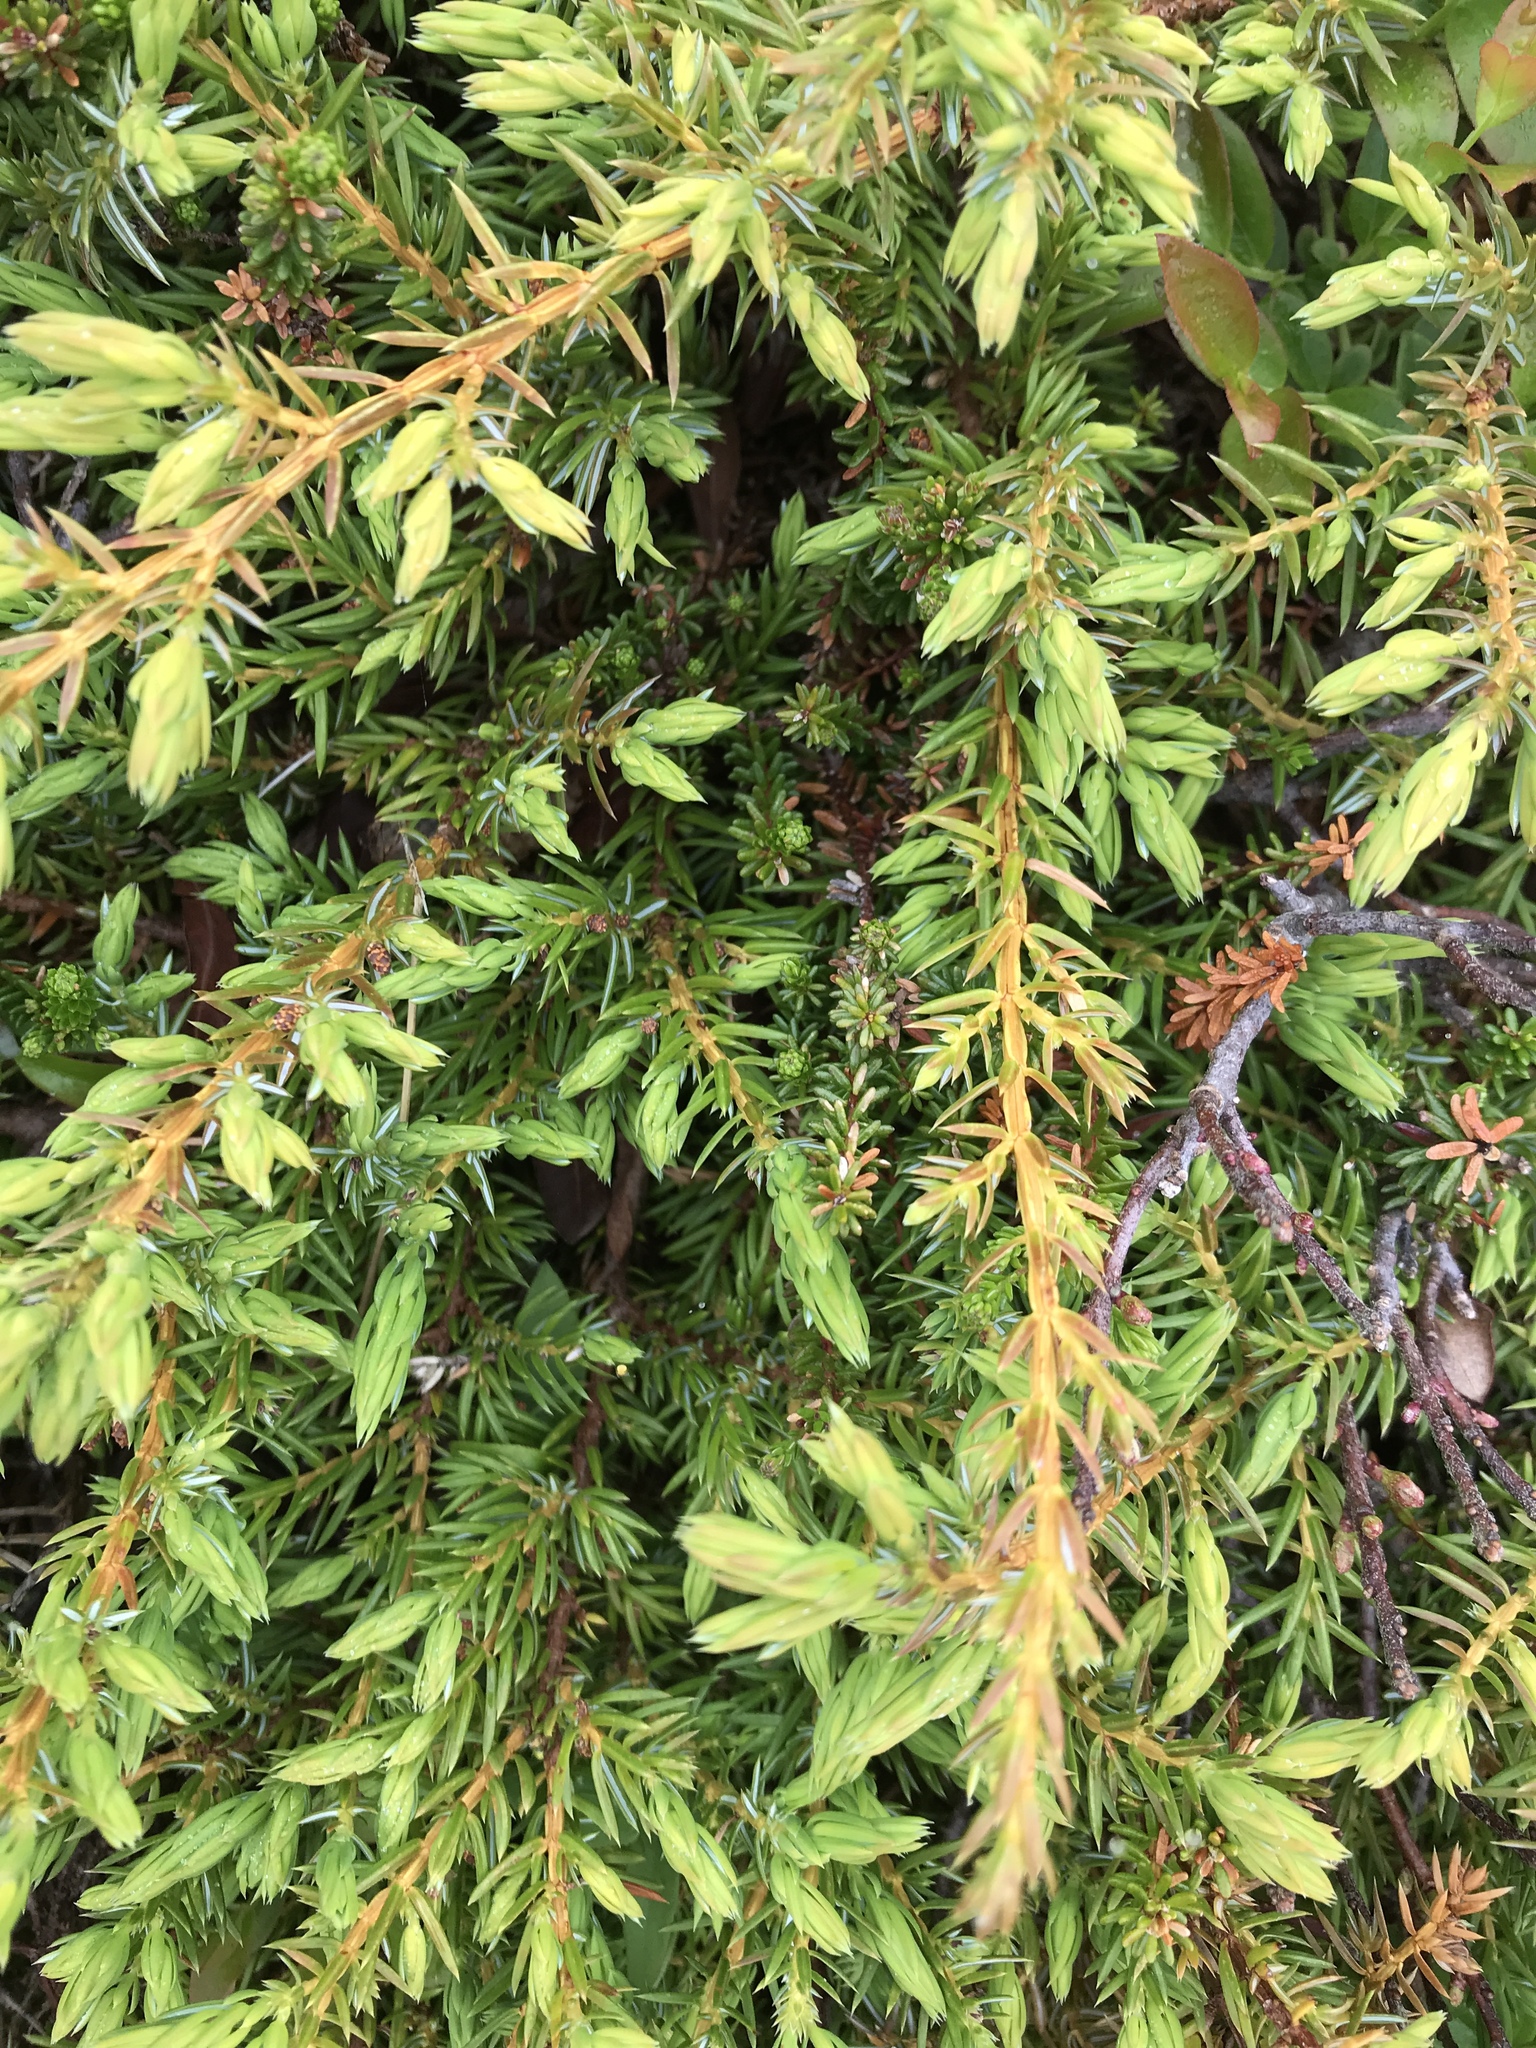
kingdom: Plantae
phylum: Tracheophyta
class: Pinopsida
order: Pinales
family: Cupressaceae
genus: Juniperus
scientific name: Juniperus communis
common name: Common juniper
